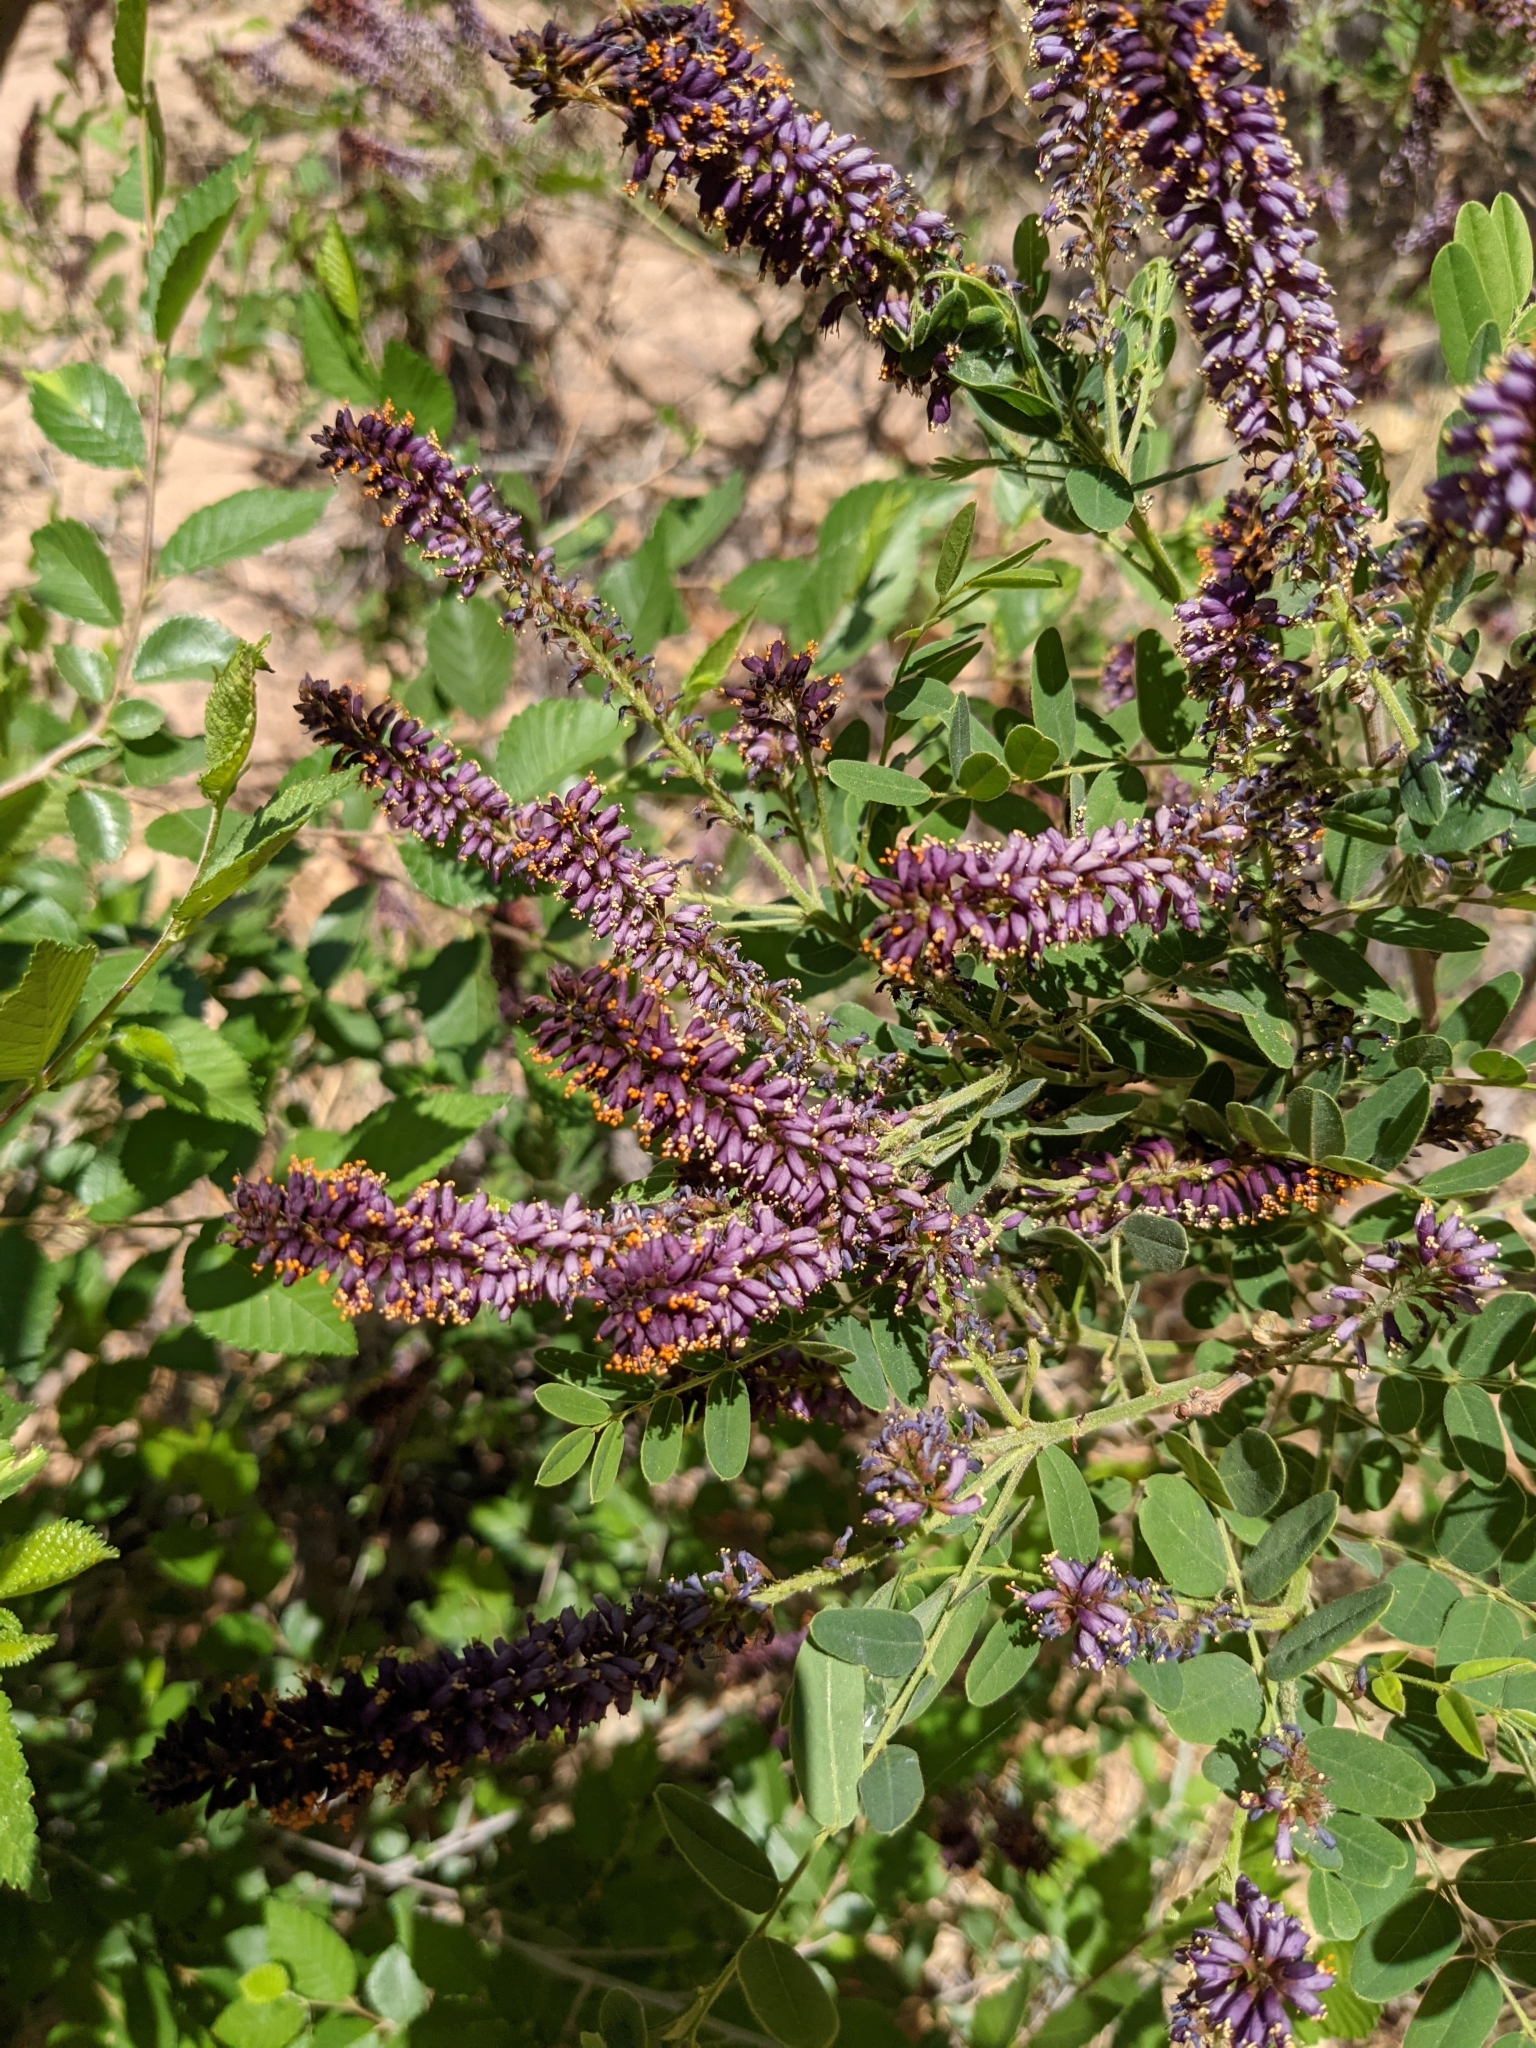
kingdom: Plantae
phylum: Tracheophyta
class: Magnoliopsida
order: Fabales
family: Fabaceae
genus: Amorpha
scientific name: Amorpha fruticosa
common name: False indigo
